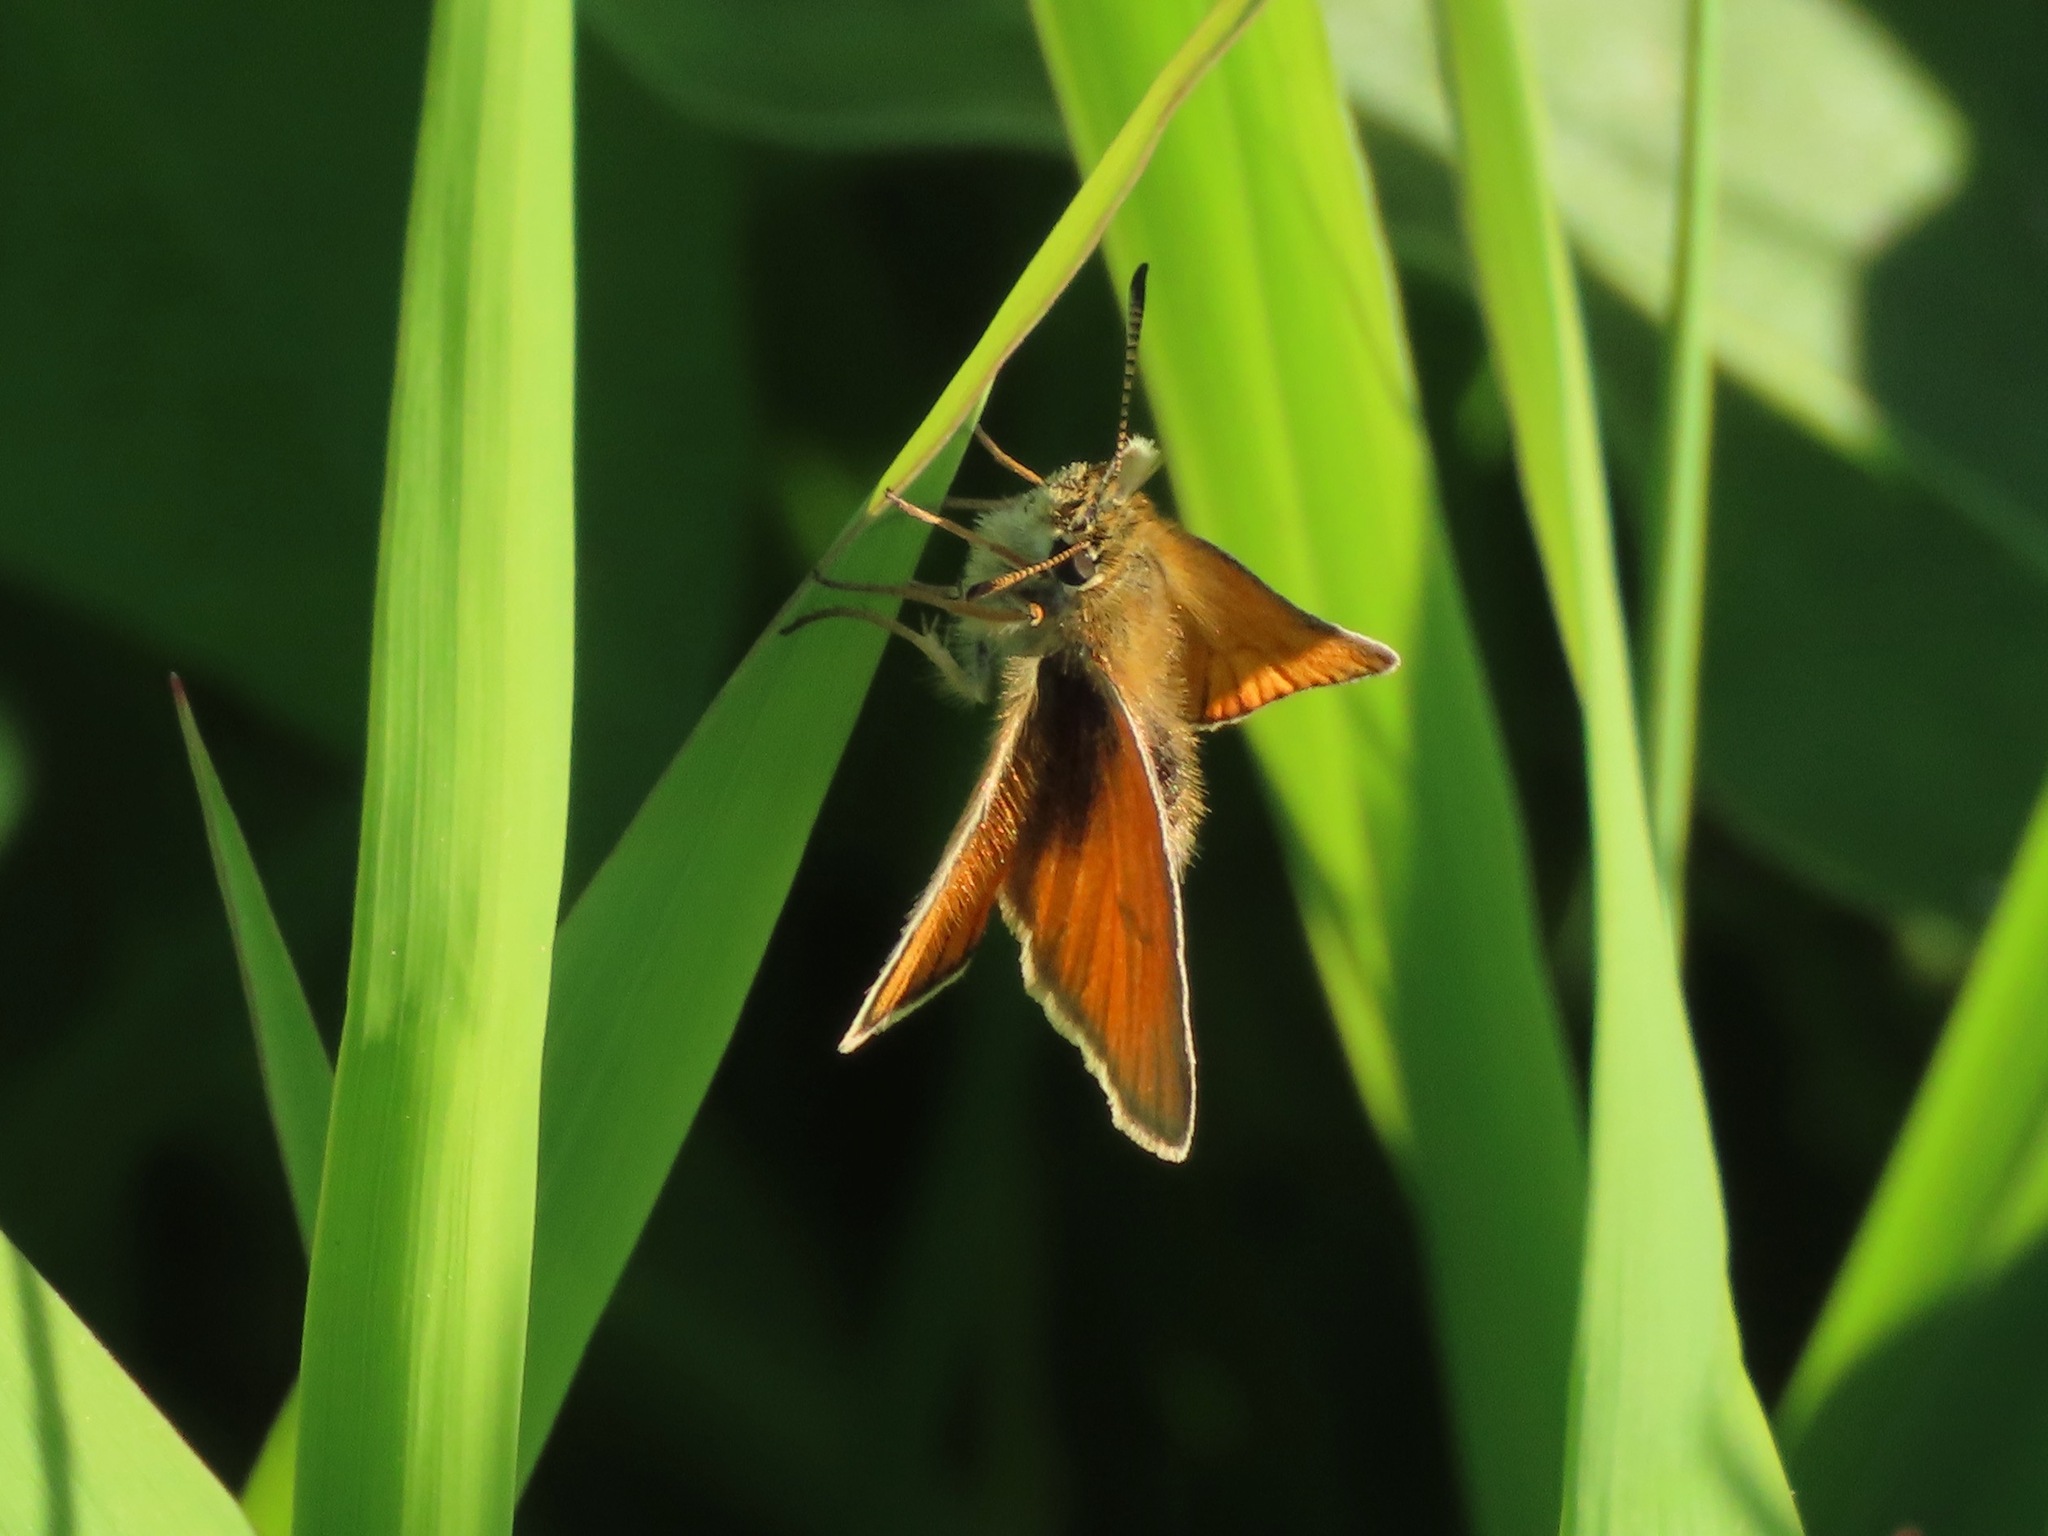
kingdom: Animalia
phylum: Arthropoda
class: Insecta
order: Lepidoptera
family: Hesperiidae
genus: Thymelicus
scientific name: Thymelicus lineola
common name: Essex skipper
